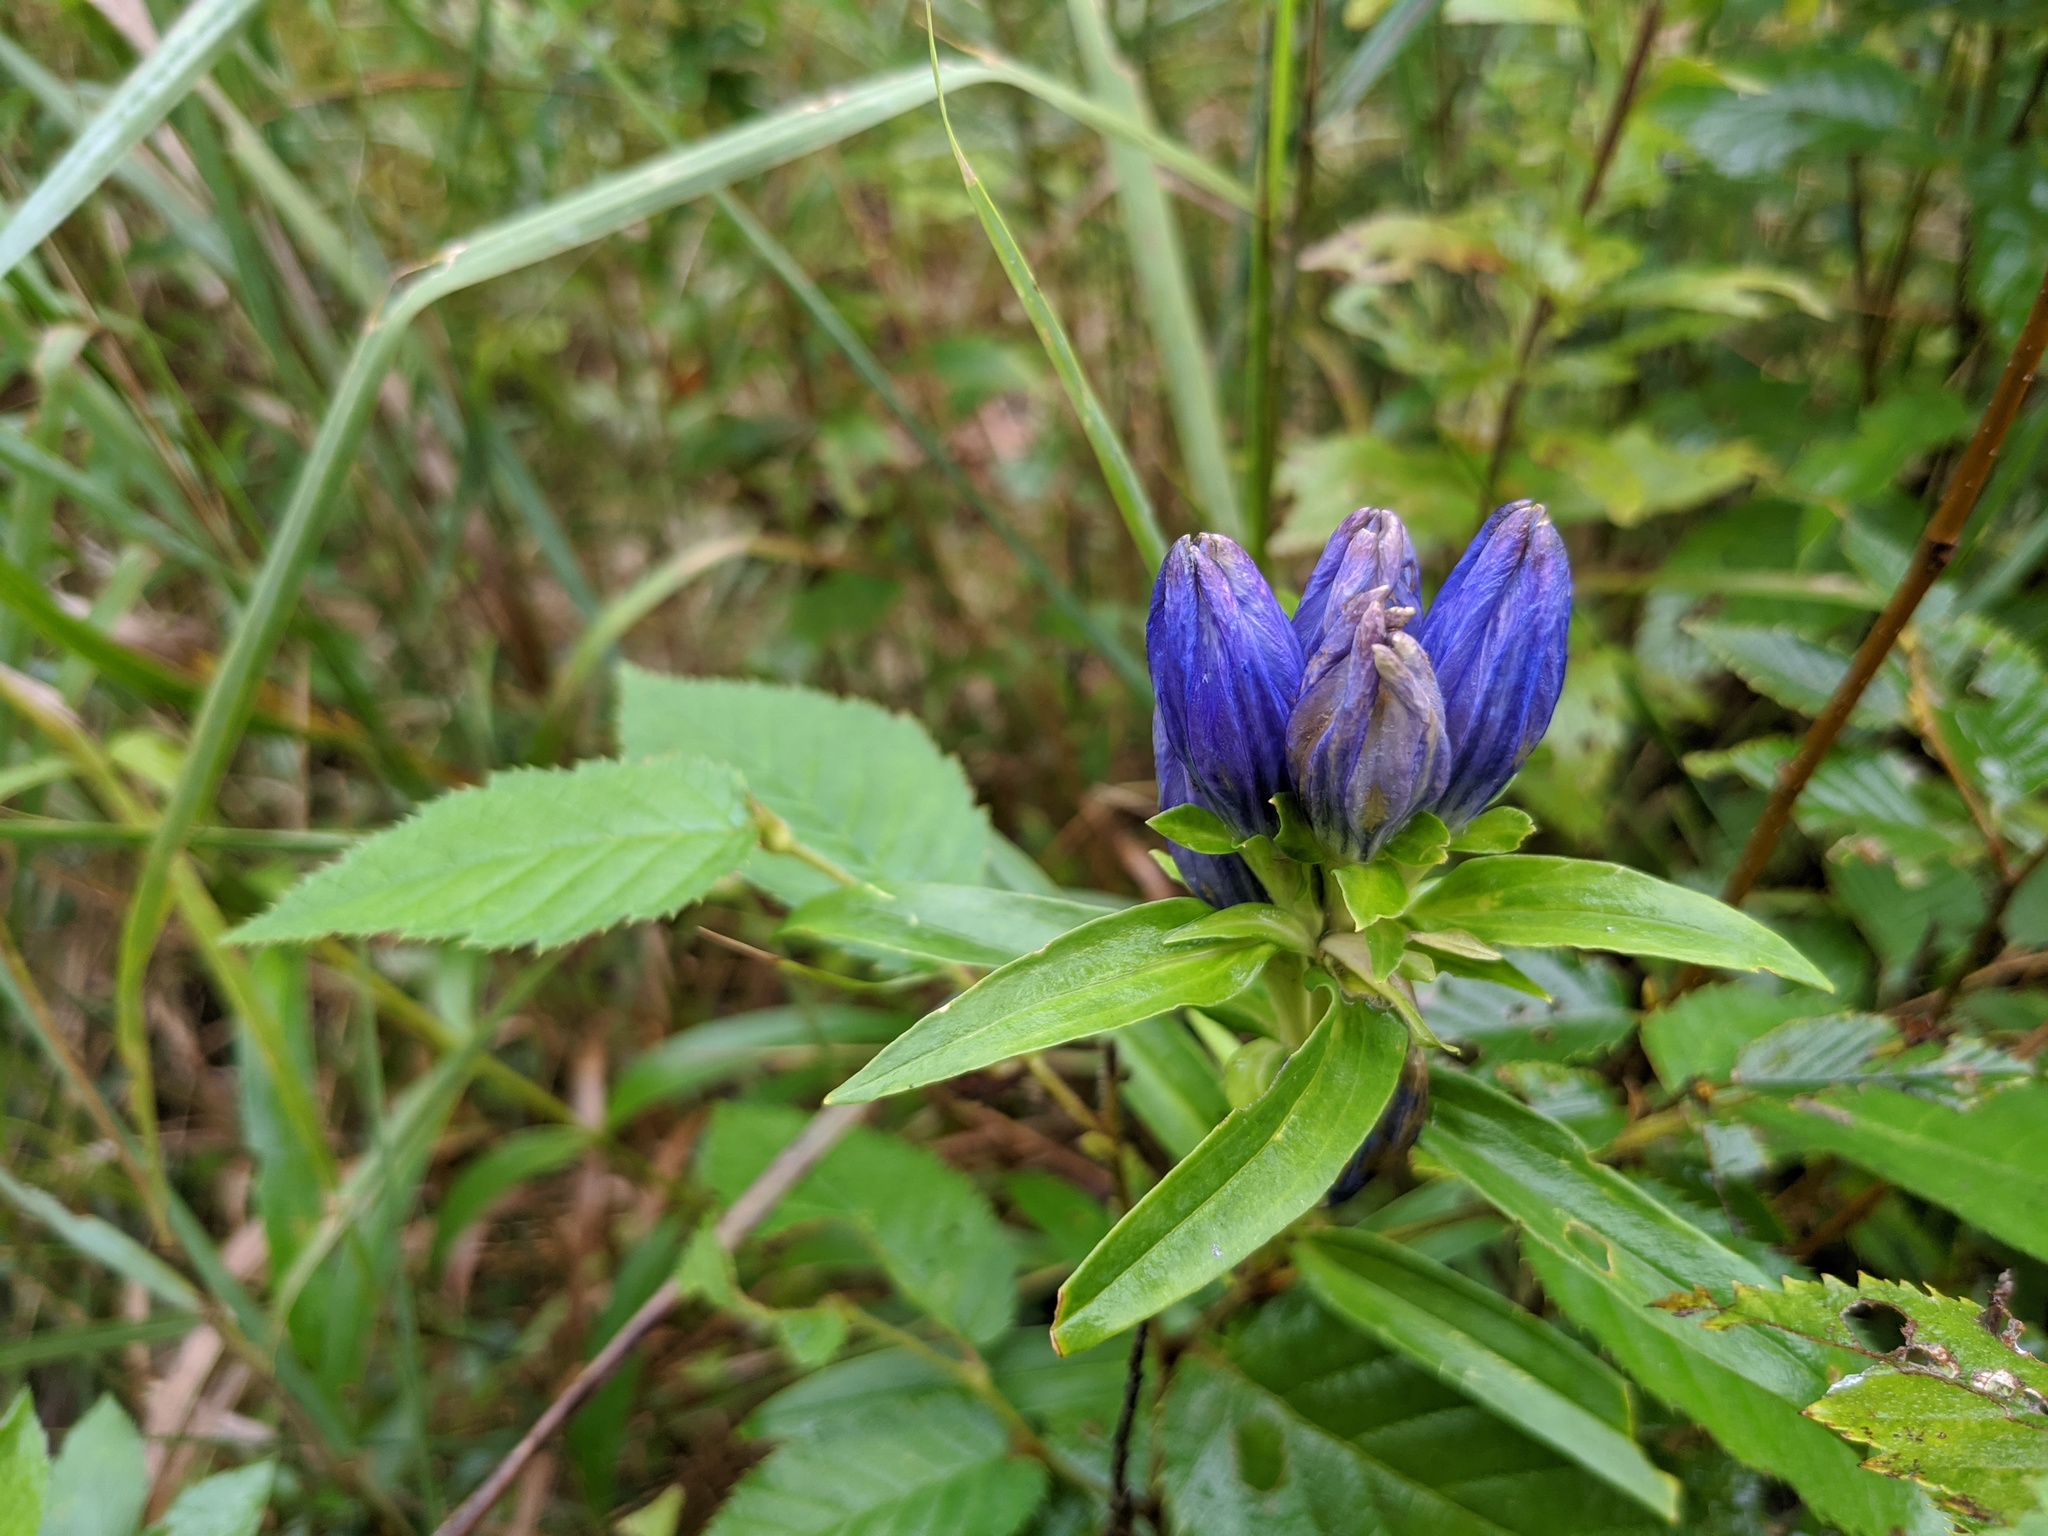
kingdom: Plantae
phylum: Tracheophyta
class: Magnoliopsida
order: Gentianales
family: Gentianaceae
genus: Gentiana
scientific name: Gentiana linearis
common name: Bastard gentian
